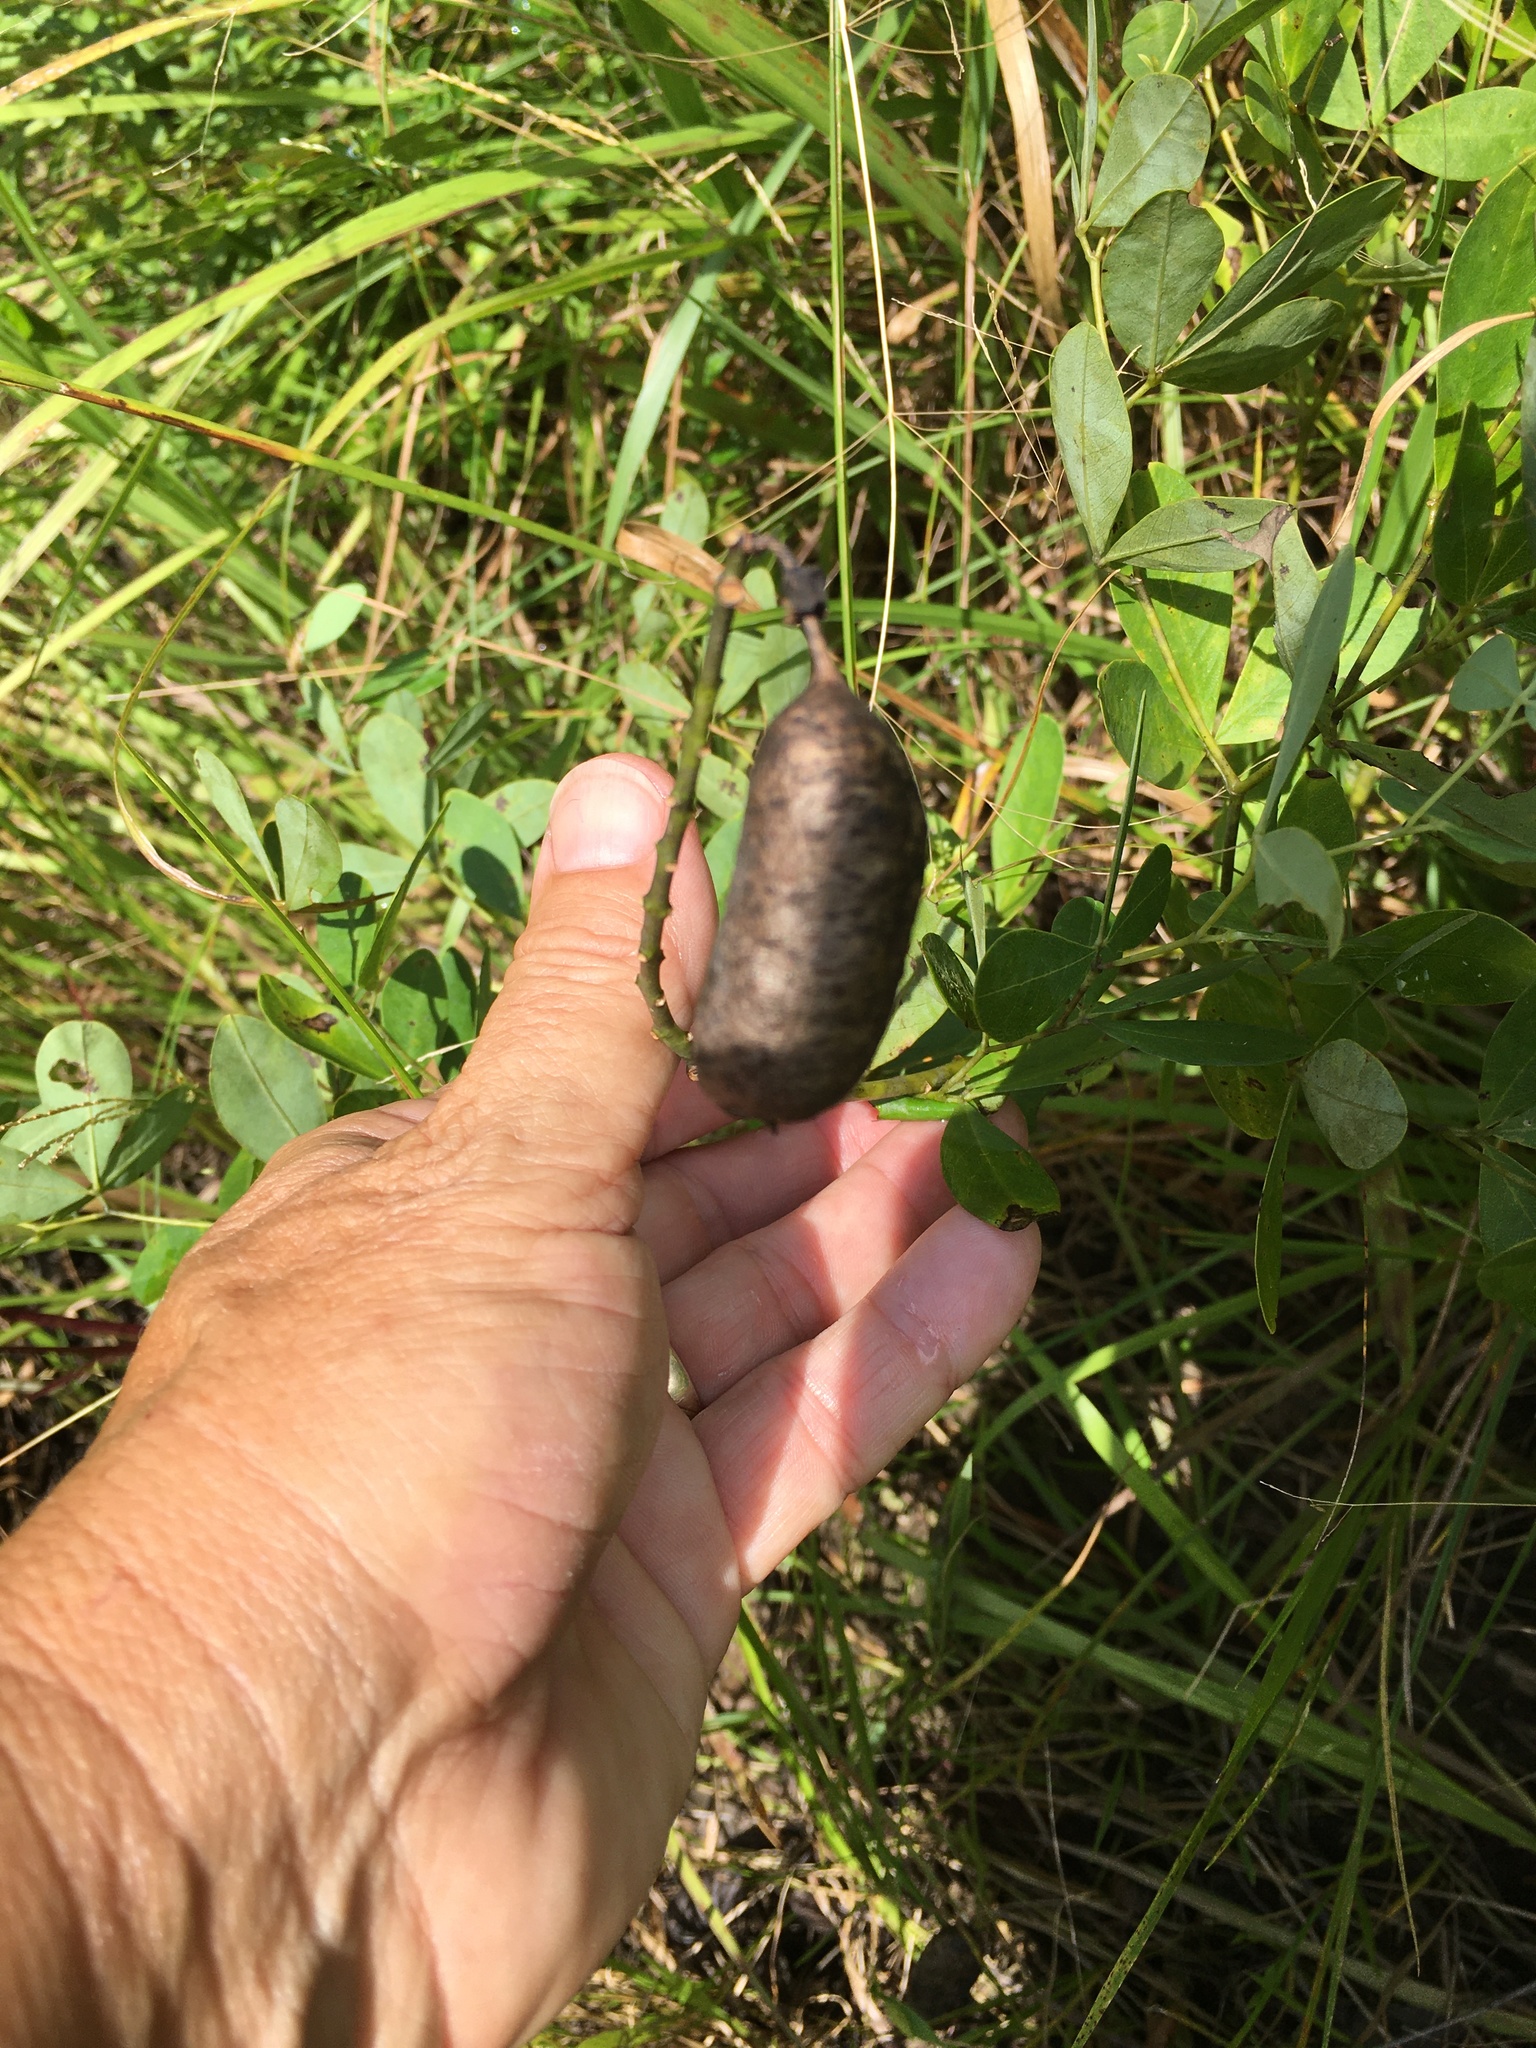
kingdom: Plantae
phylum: Tracheophyta
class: Magnoliopsida
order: Fabales
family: Fabaceae
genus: Baptisia
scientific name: Baptisia alba
